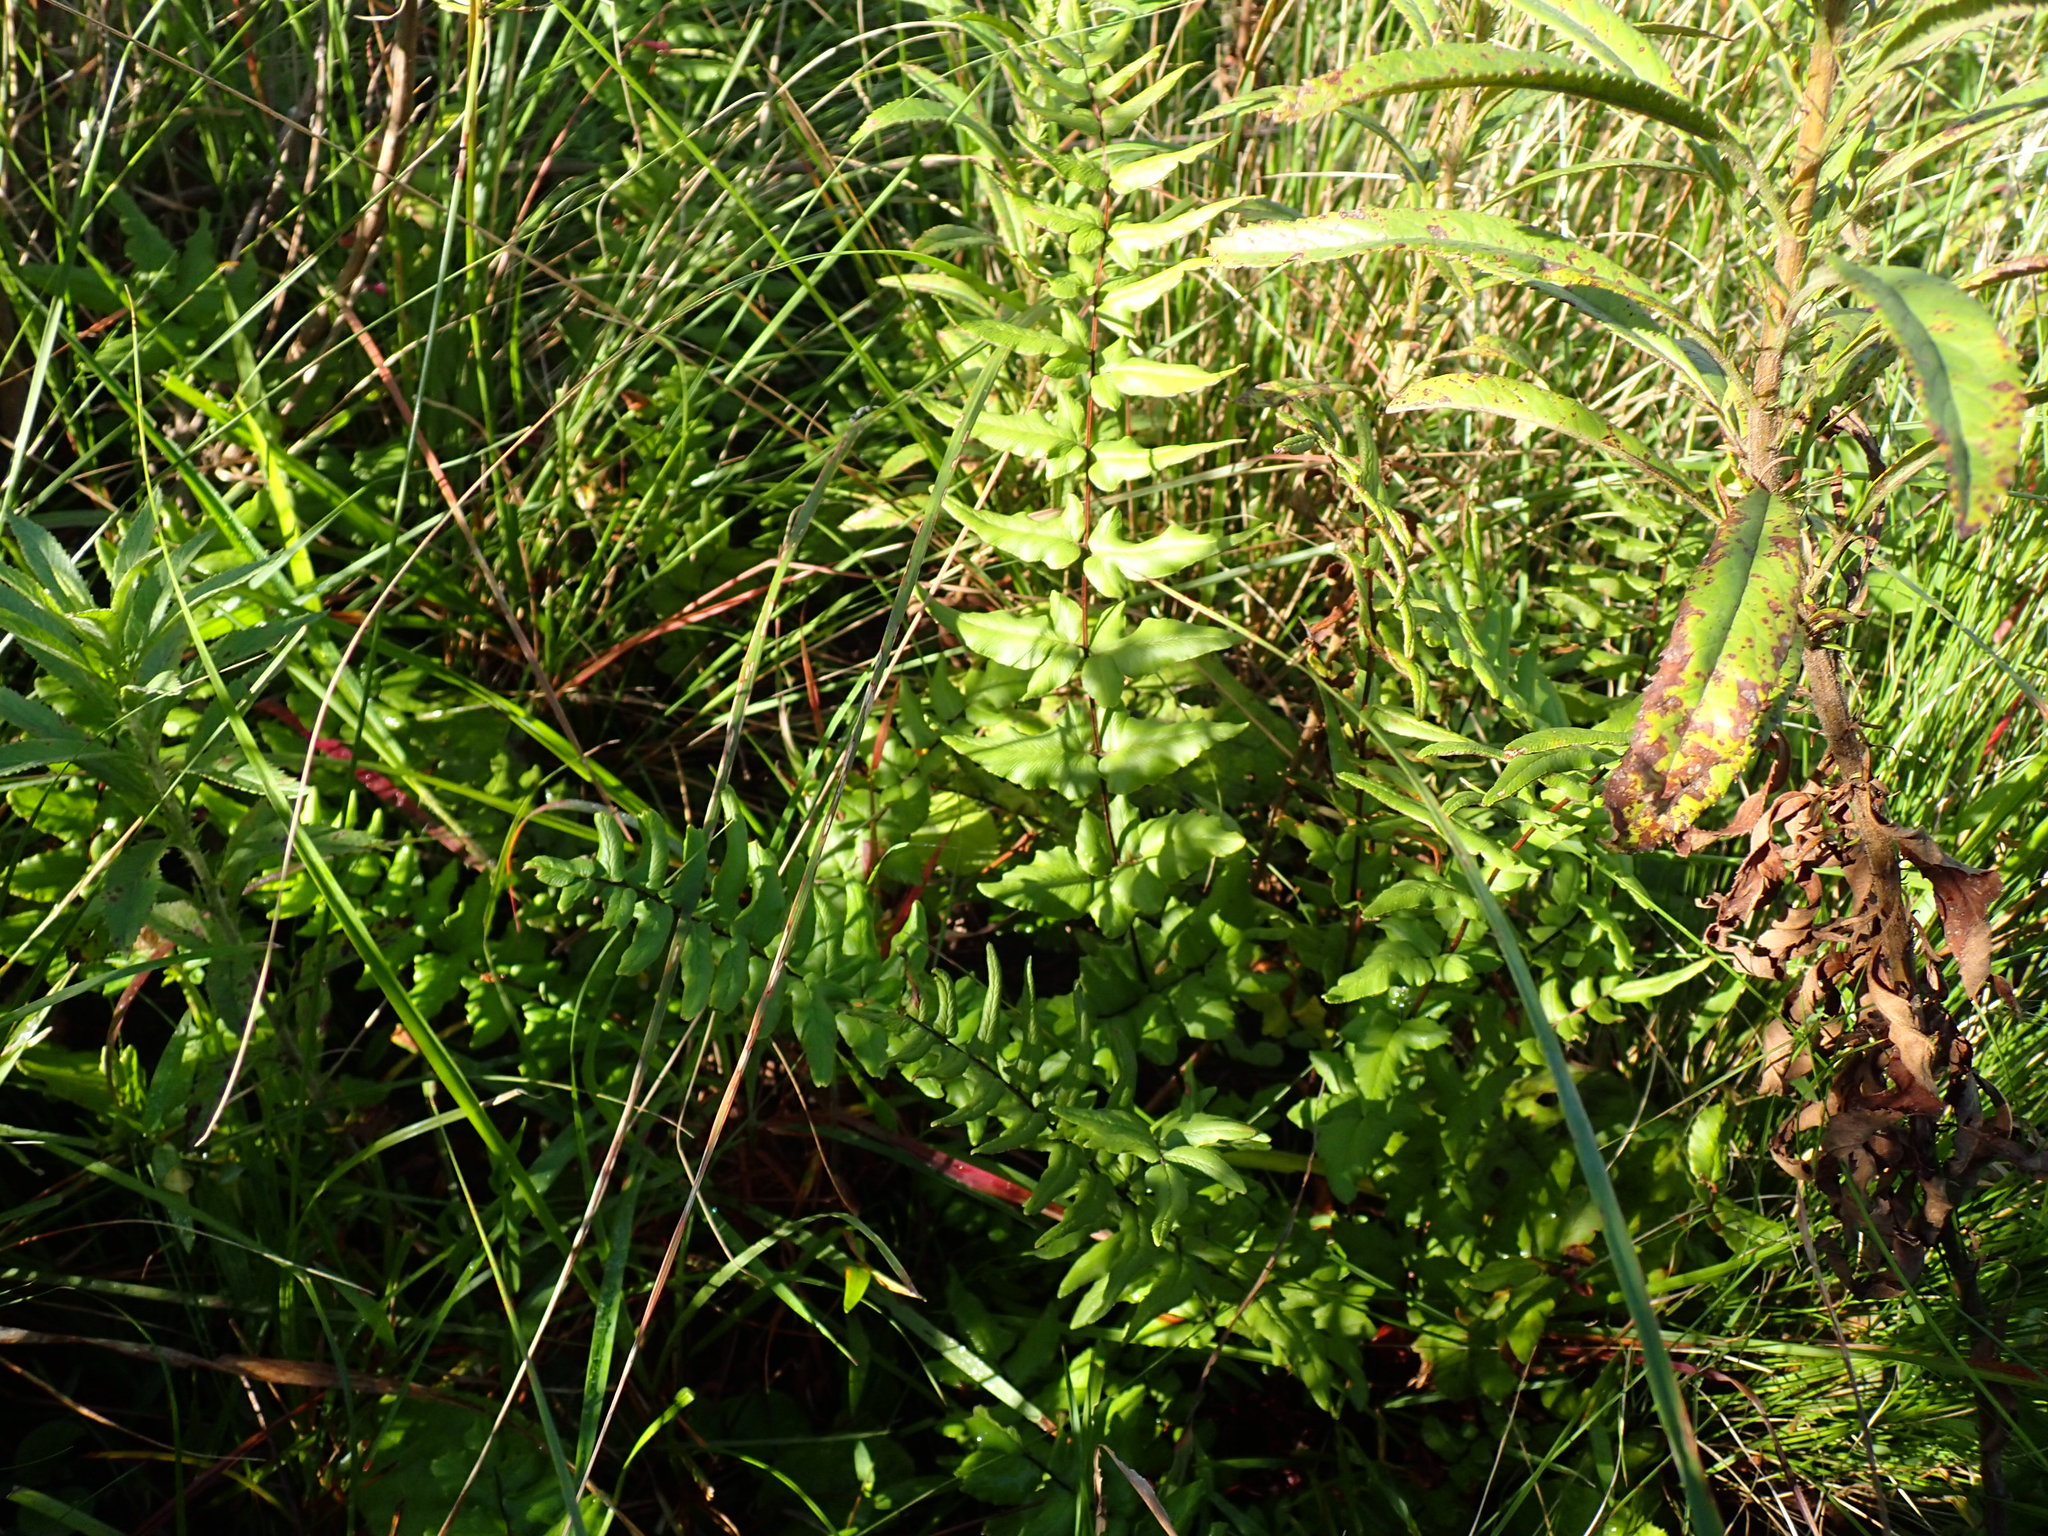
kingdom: Plantae
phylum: Tracheophyta
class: Polypodiopsida
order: Polypodiales
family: Pteridaceae
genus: Cheilanthes
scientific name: Cheilanthes viridis
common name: Green cliffbrake
